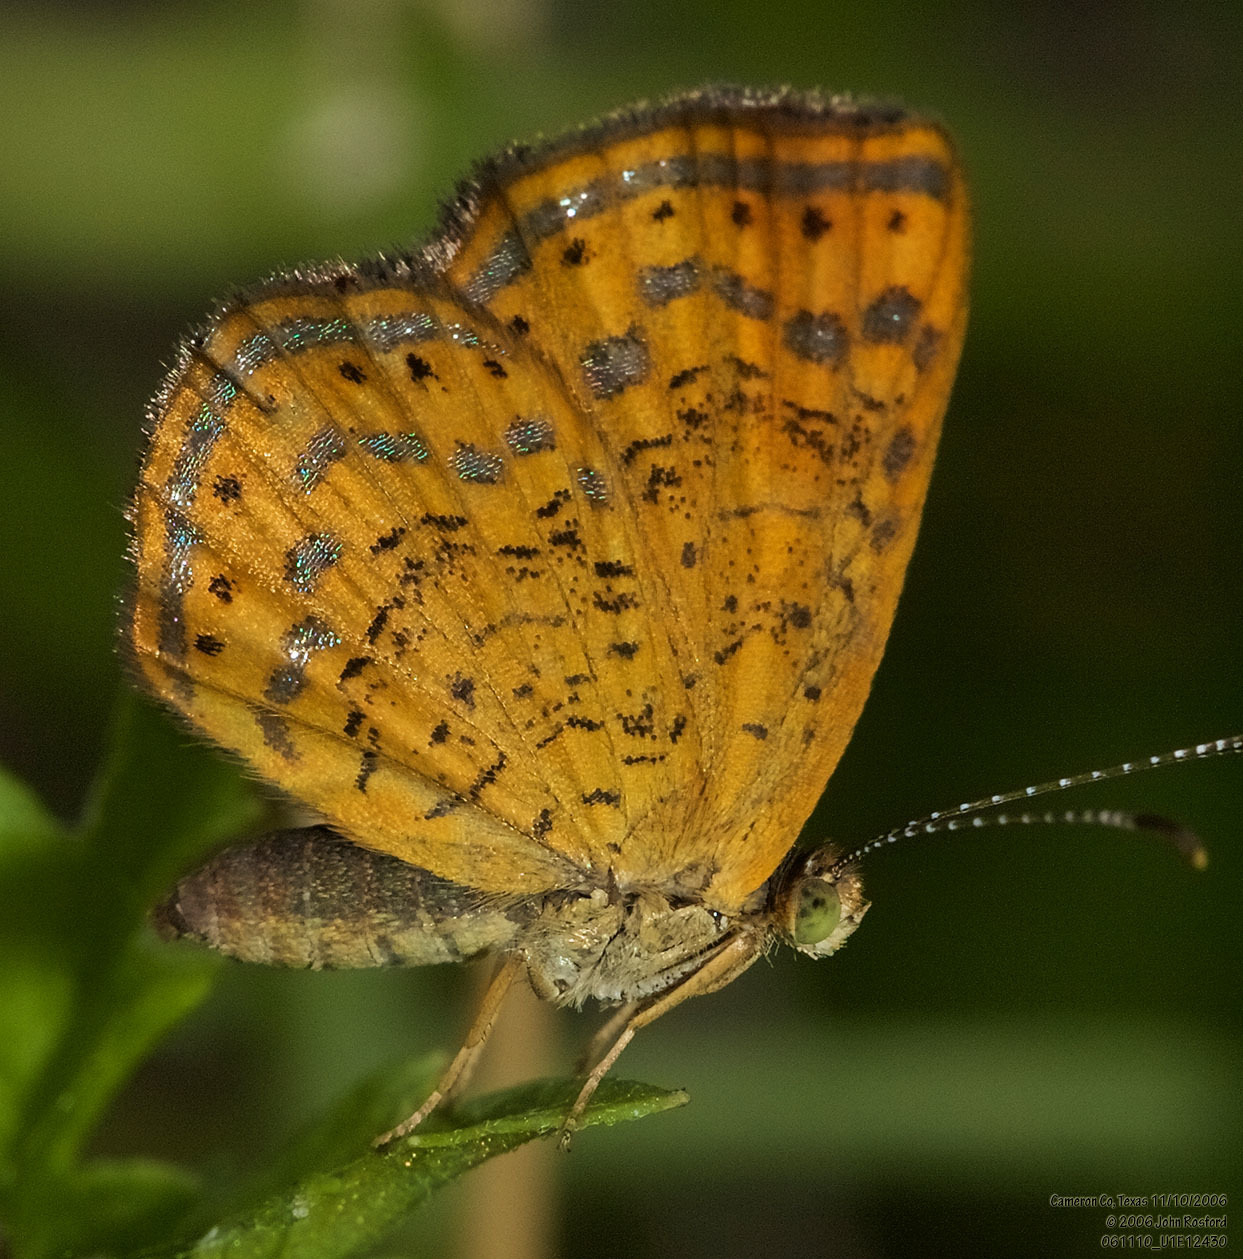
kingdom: Animalia
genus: Calephelis
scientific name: Calephelis perditalis
